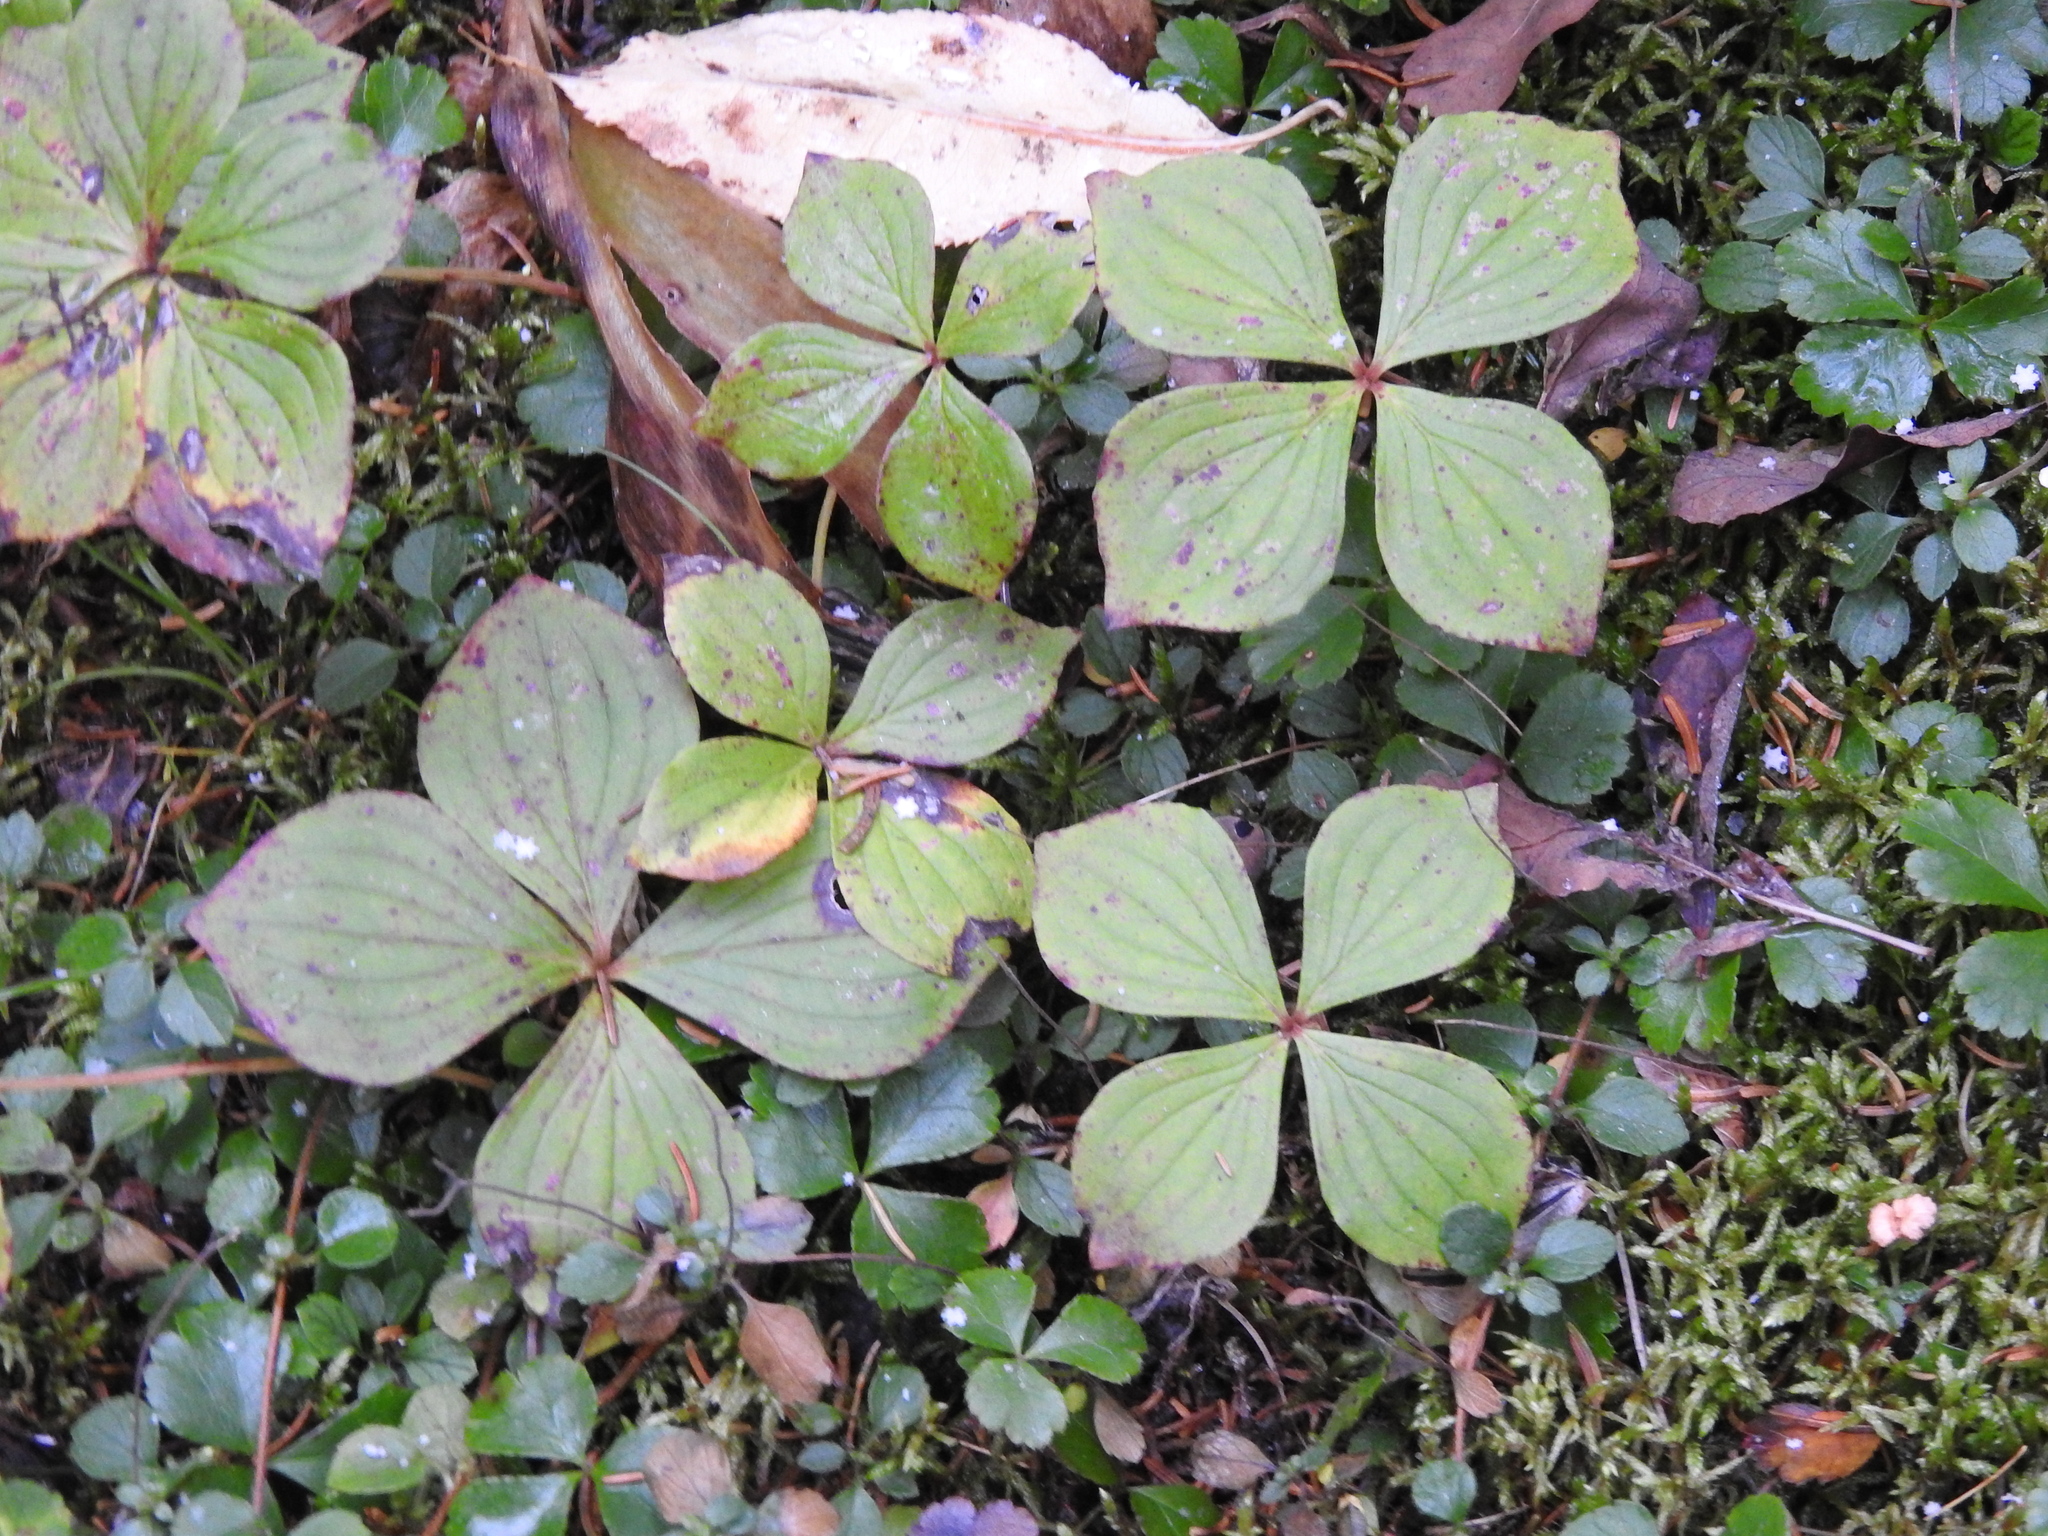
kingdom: Plantae
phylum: Tracheophyta
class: Magnoliopsida
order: Cornales
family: Cornaceae
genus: Cornus
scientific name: Cornus canadensis
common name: Creeping dogwood
